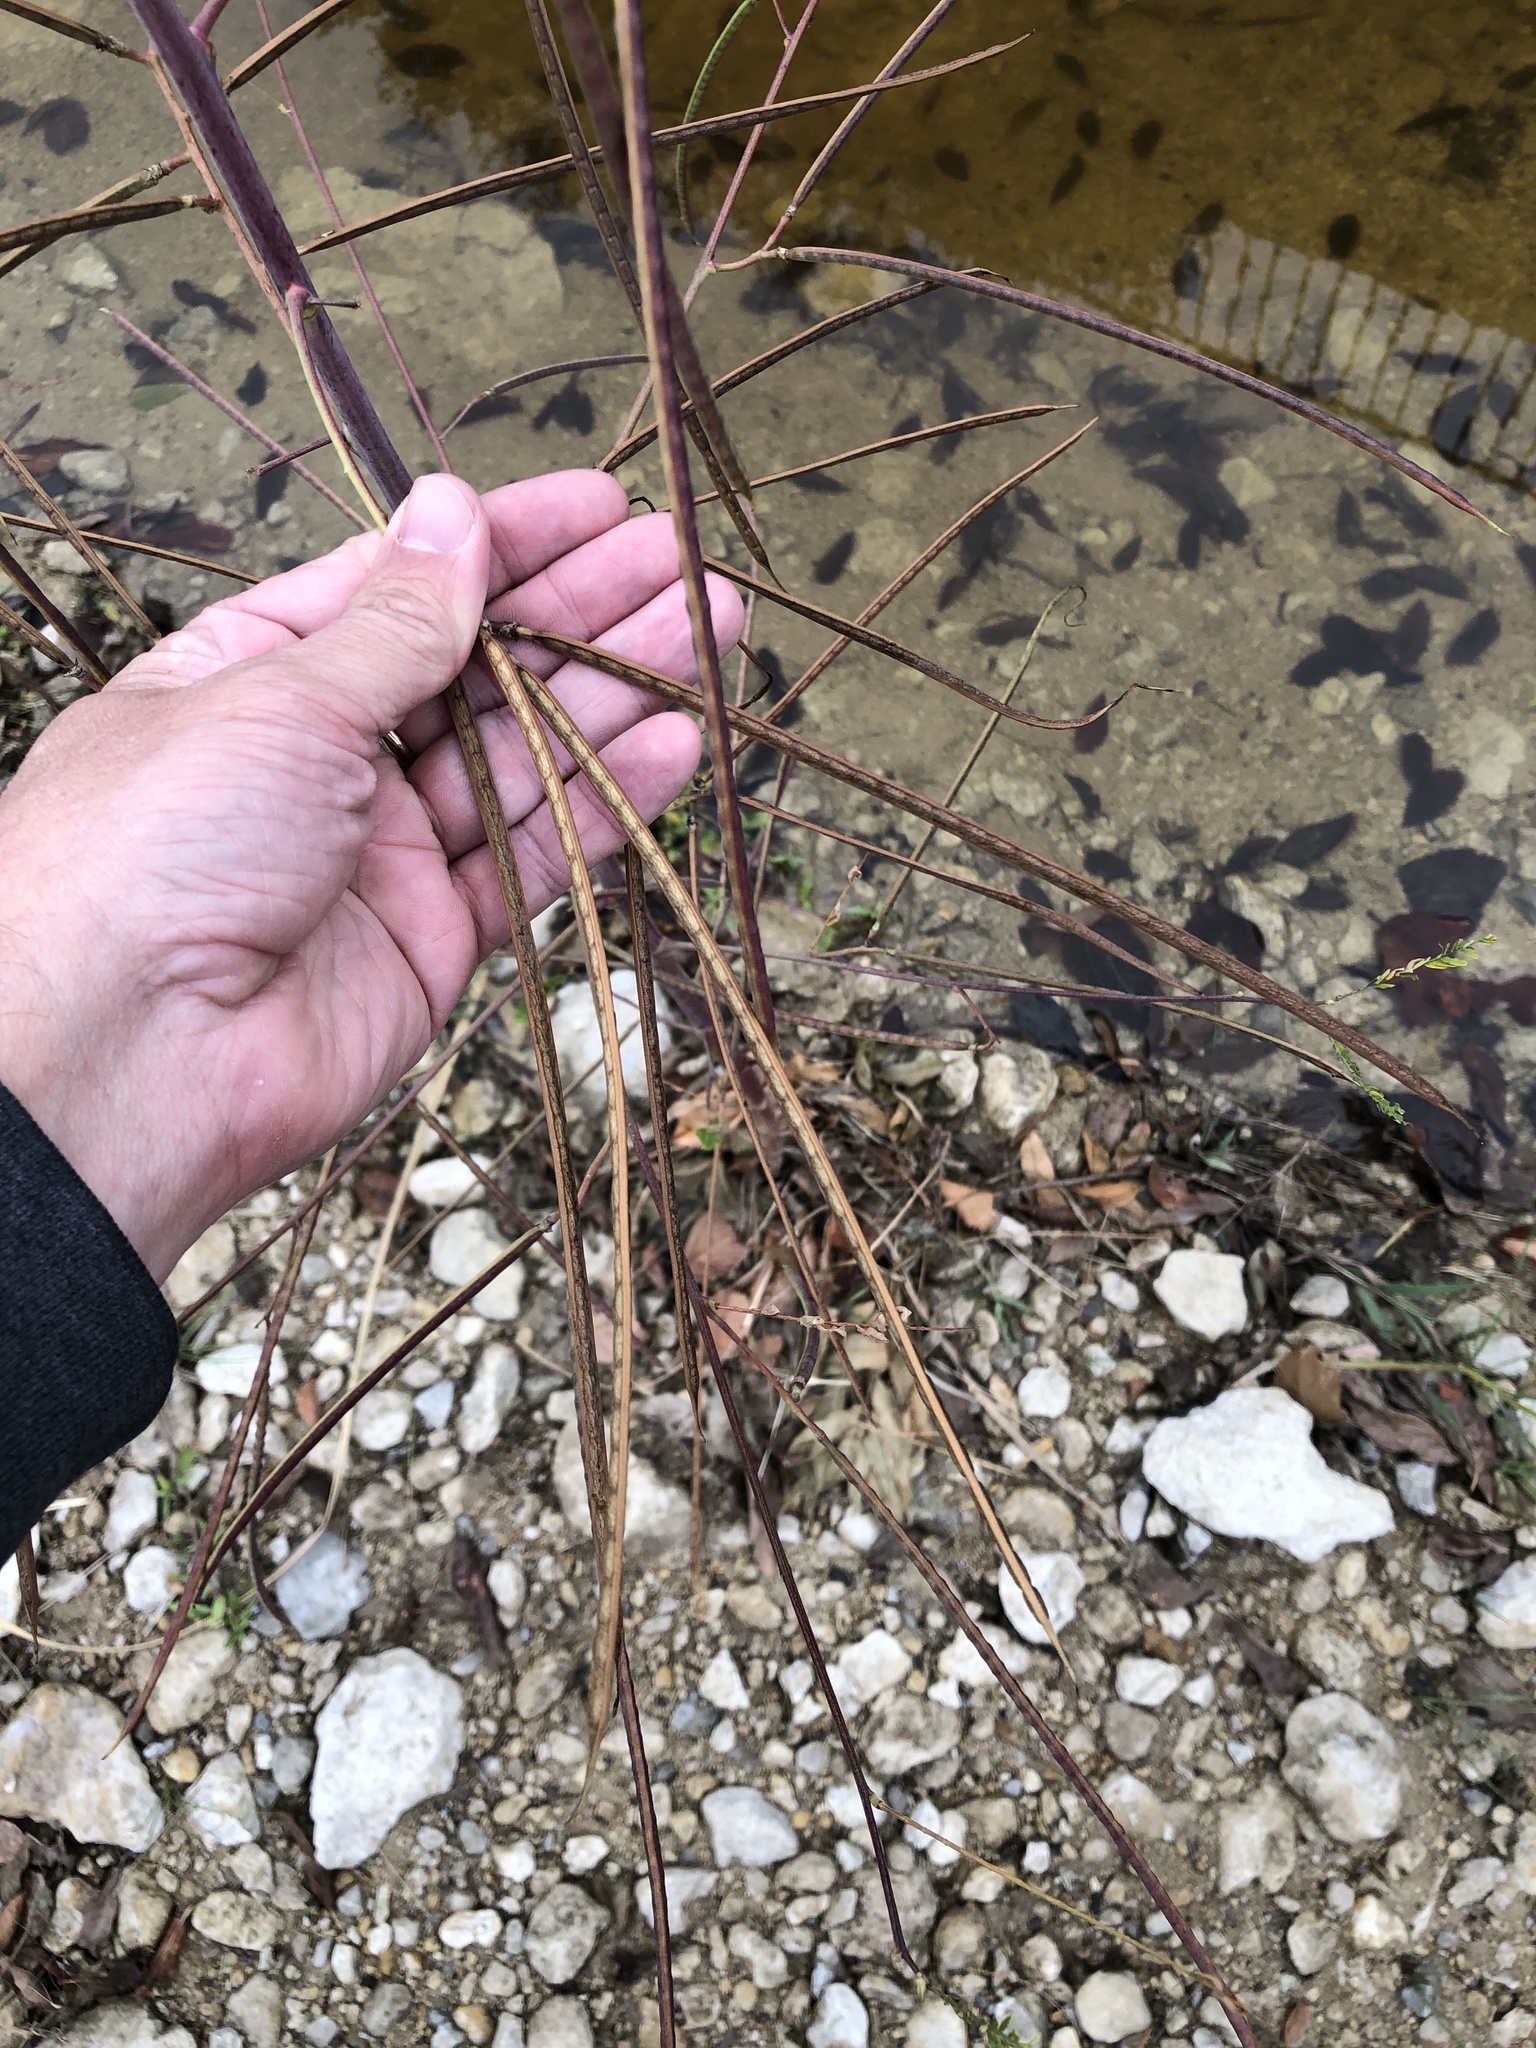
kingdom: Plantae
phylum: Tracheophyta
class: Magnoliopsida
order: Fabales
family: Fabaceae
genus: Sesbania
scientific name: Sesbania herbacea
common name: Bigpod sesbania
